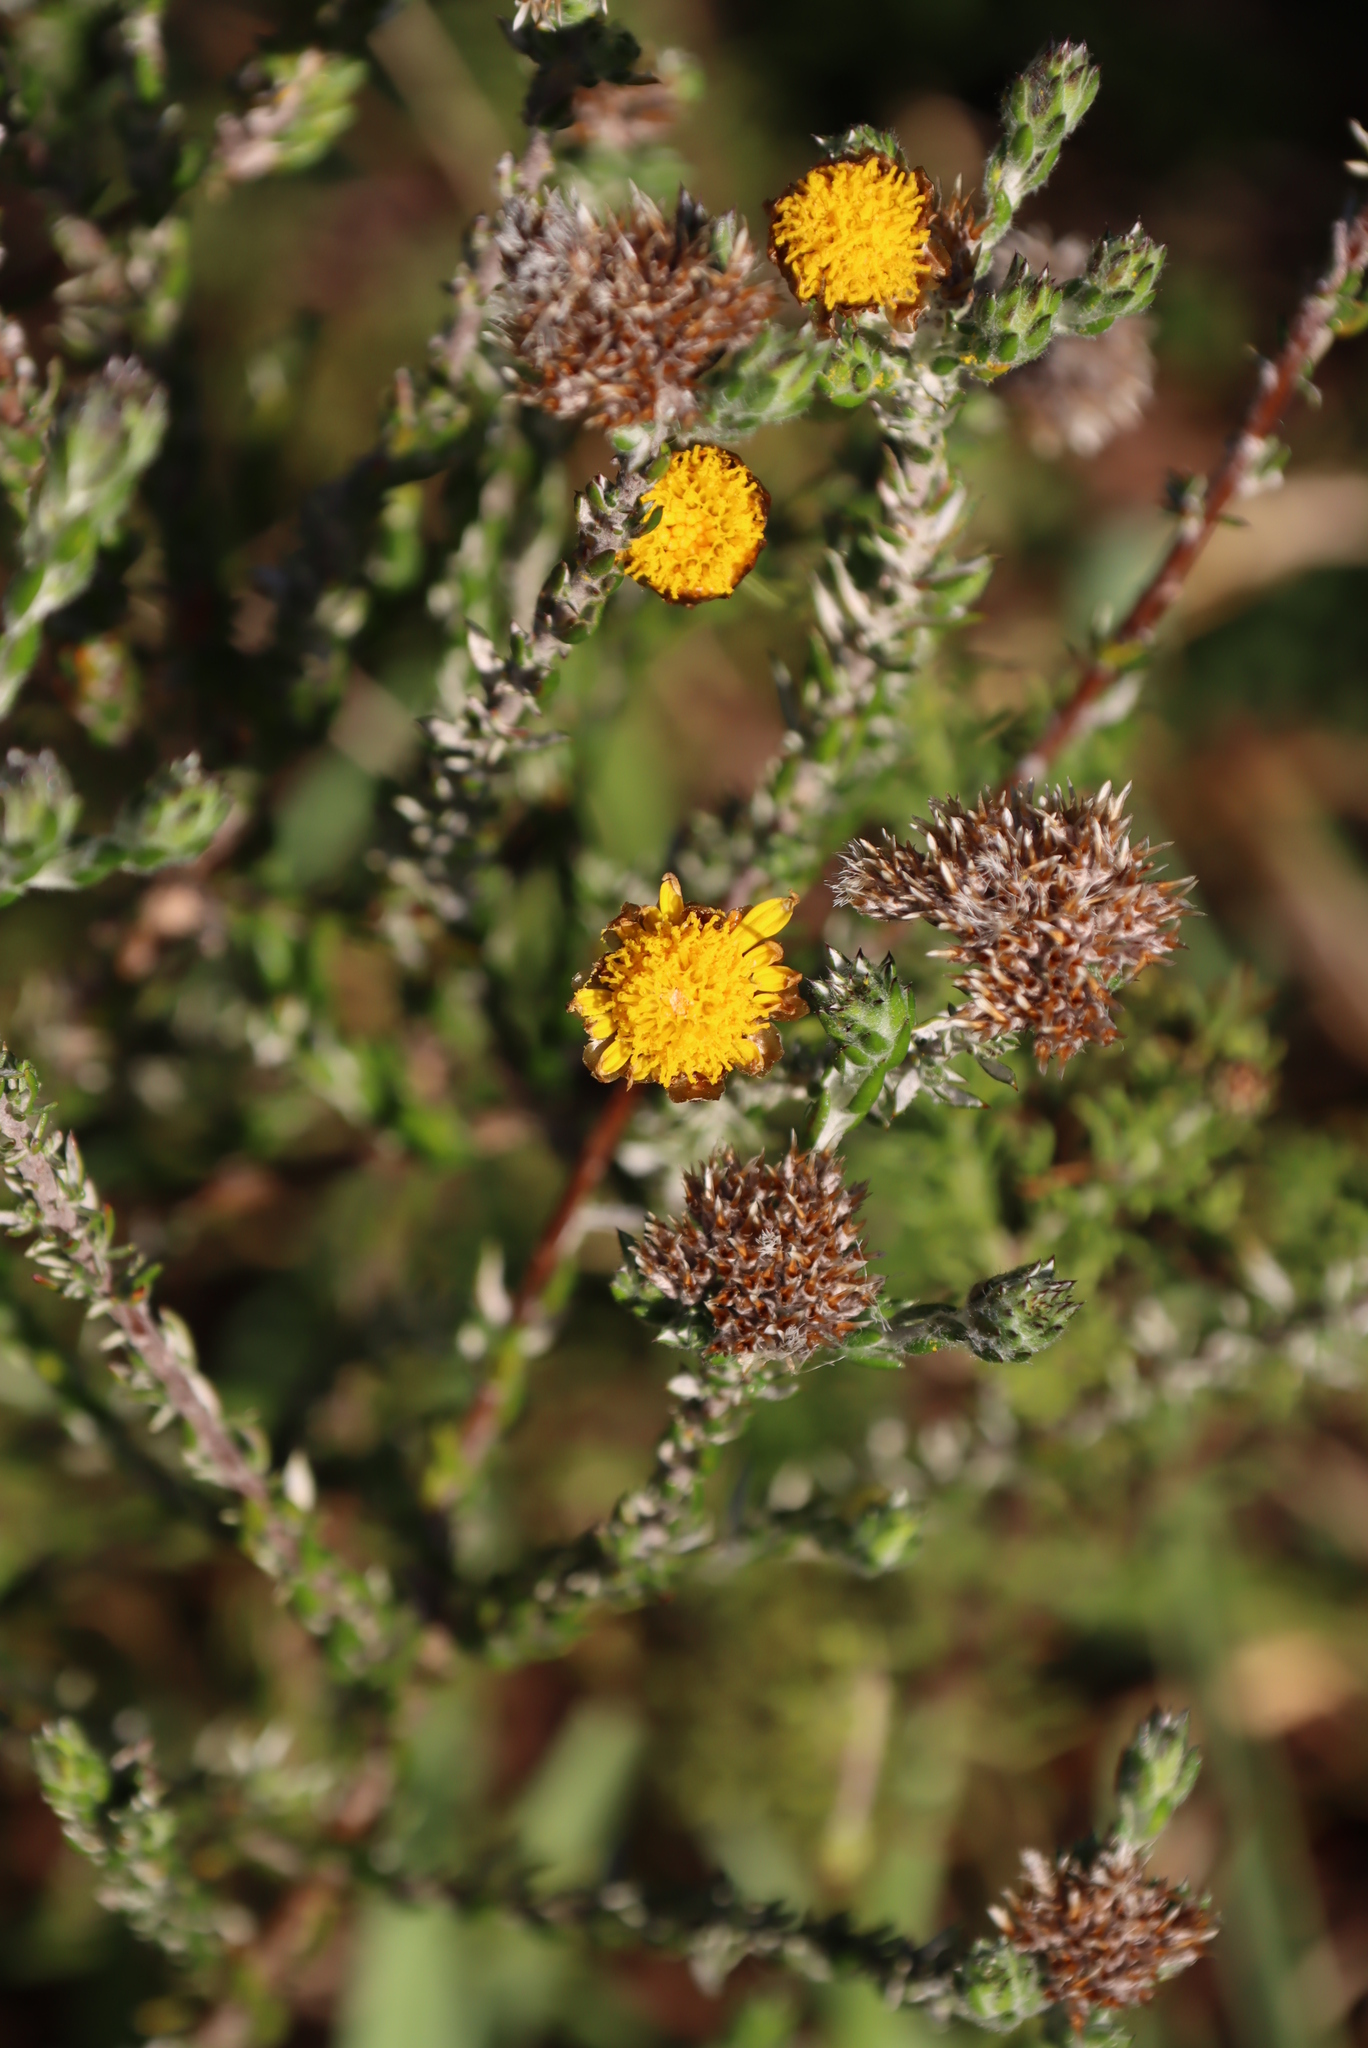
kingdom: Plantae
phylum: Tracheophyta
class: Magnoliopsida
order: Asterales
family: Asteraceae
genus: Ursinia
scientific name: Ursinia trifida
